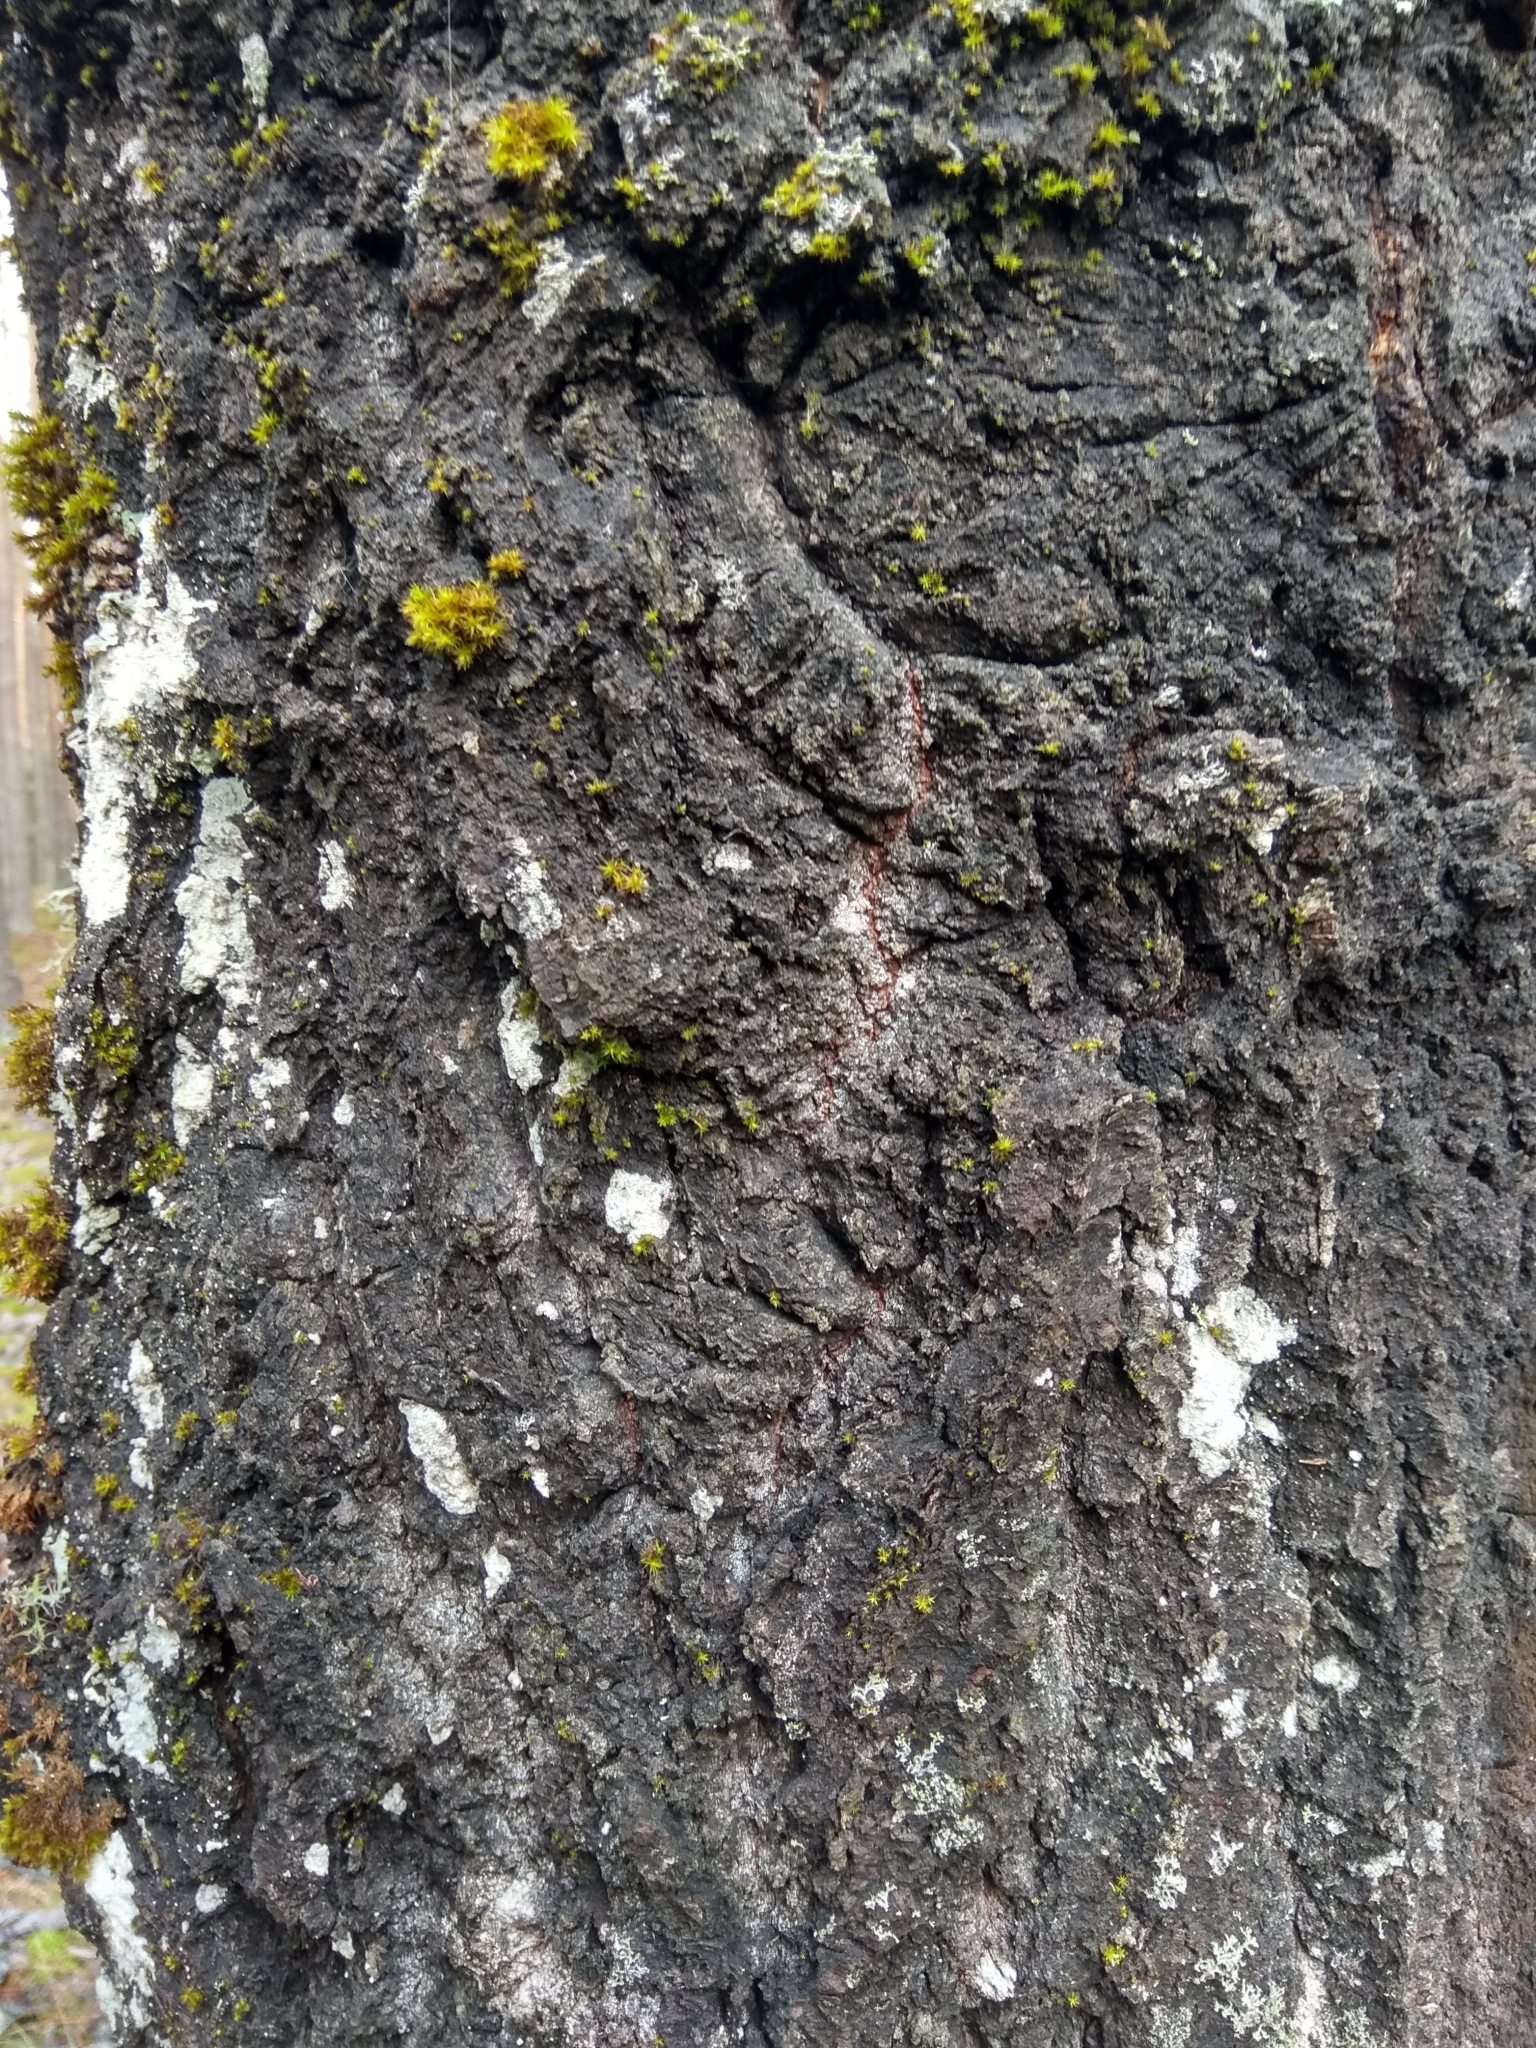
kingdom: Plantae
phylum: Tracheophyta
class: Magnoliopsida
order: Malpighiales
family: Salicaceae
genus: Populus
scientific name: Populus tremula
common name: European aspen
